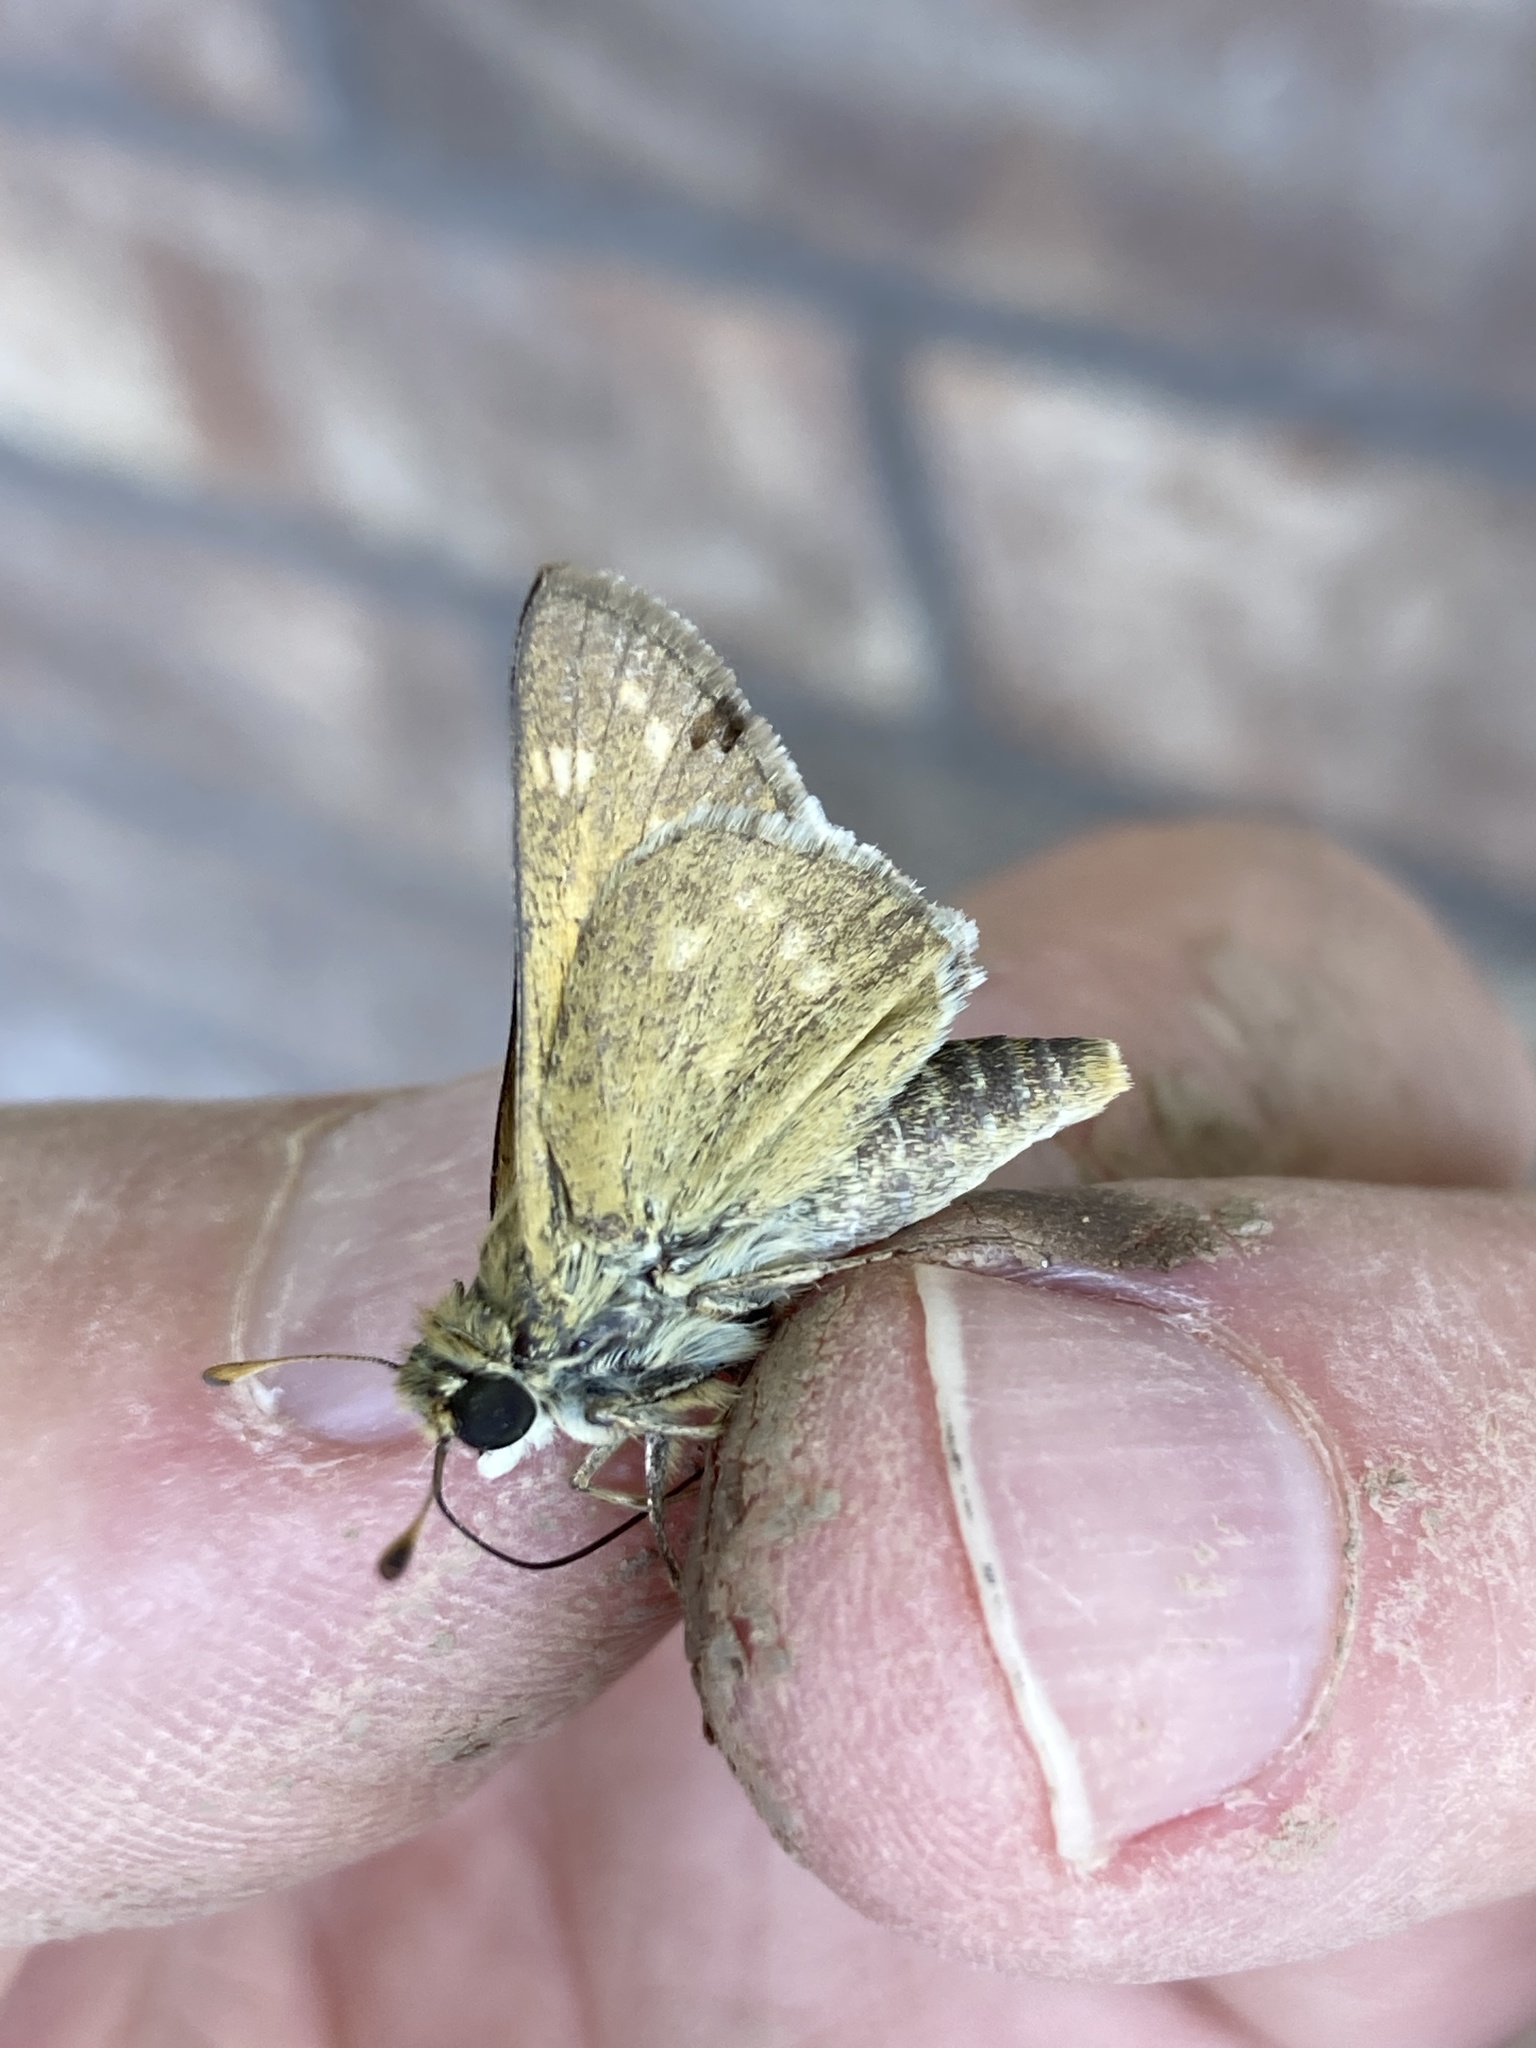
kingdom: Animalia
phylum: Arthropoda
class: Insecta
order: Lepidoptera
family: Hesperiidae
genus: Atalopedes
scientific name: Atalopedes
